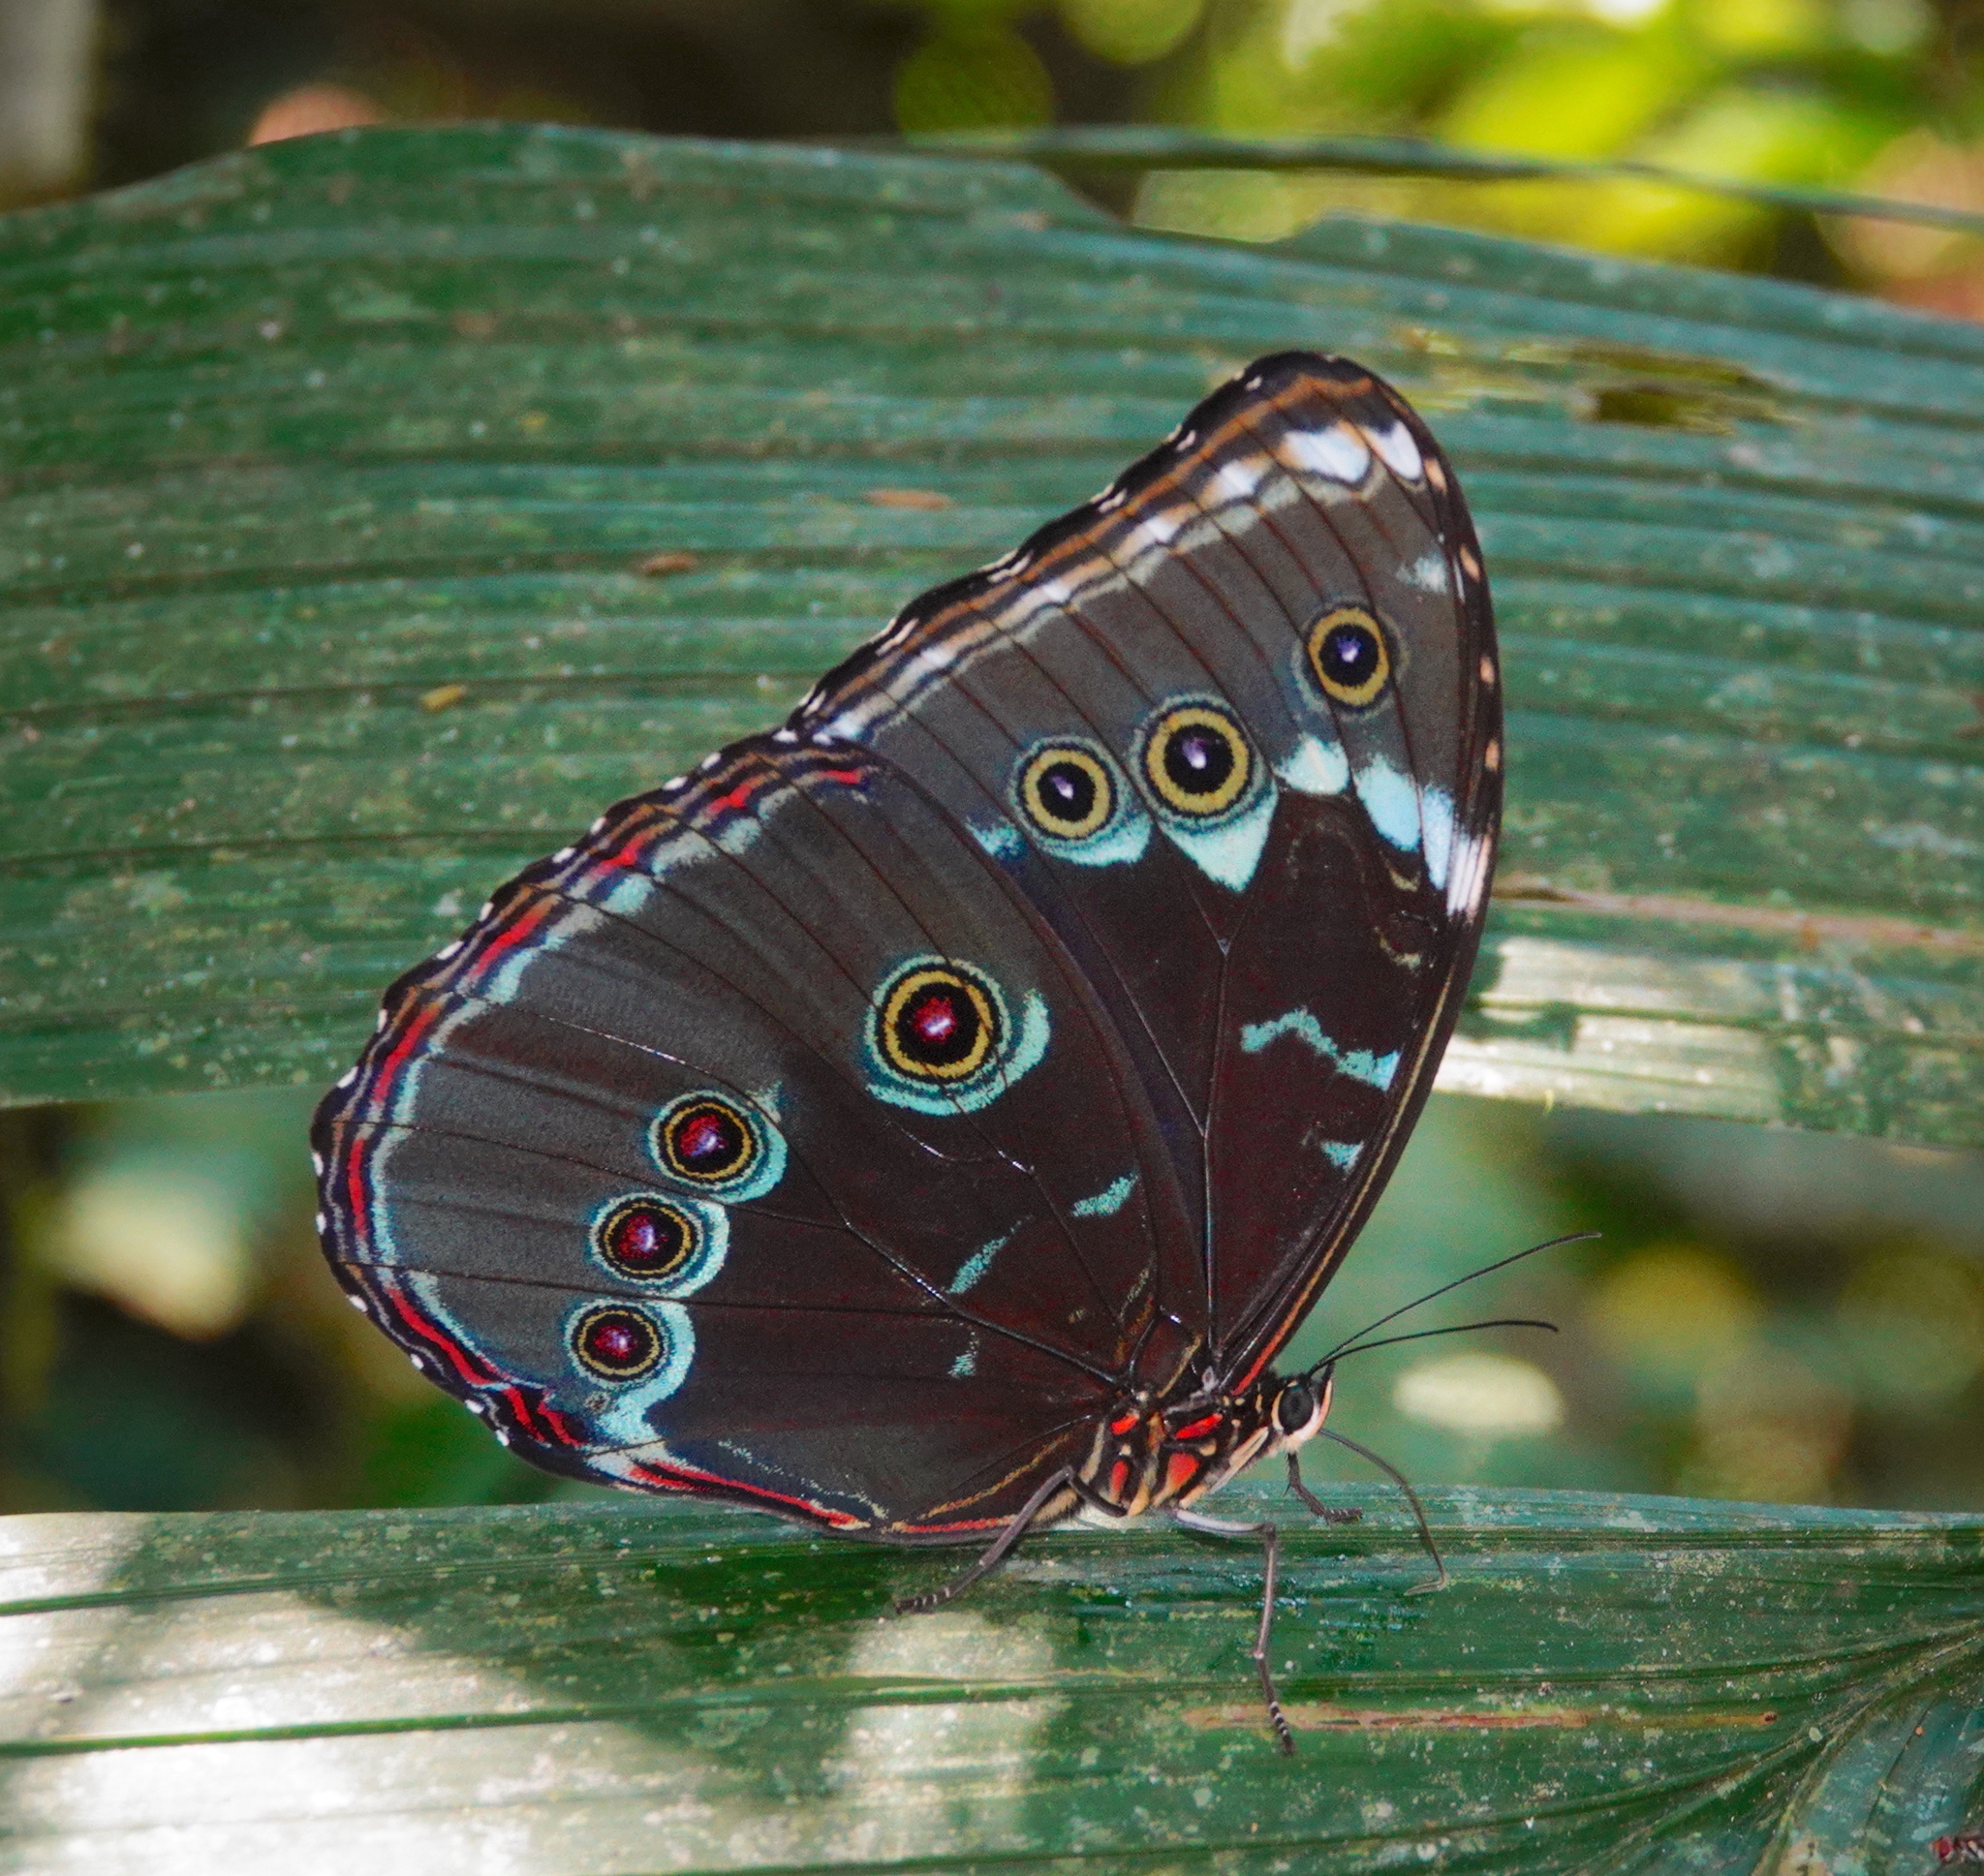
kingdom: Animalia
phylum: Arthropoda
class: Insecta
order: Lepidoptera
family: Nymphalidae
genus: Morpho
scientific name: Morpho achilles
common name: Achilles morpho
